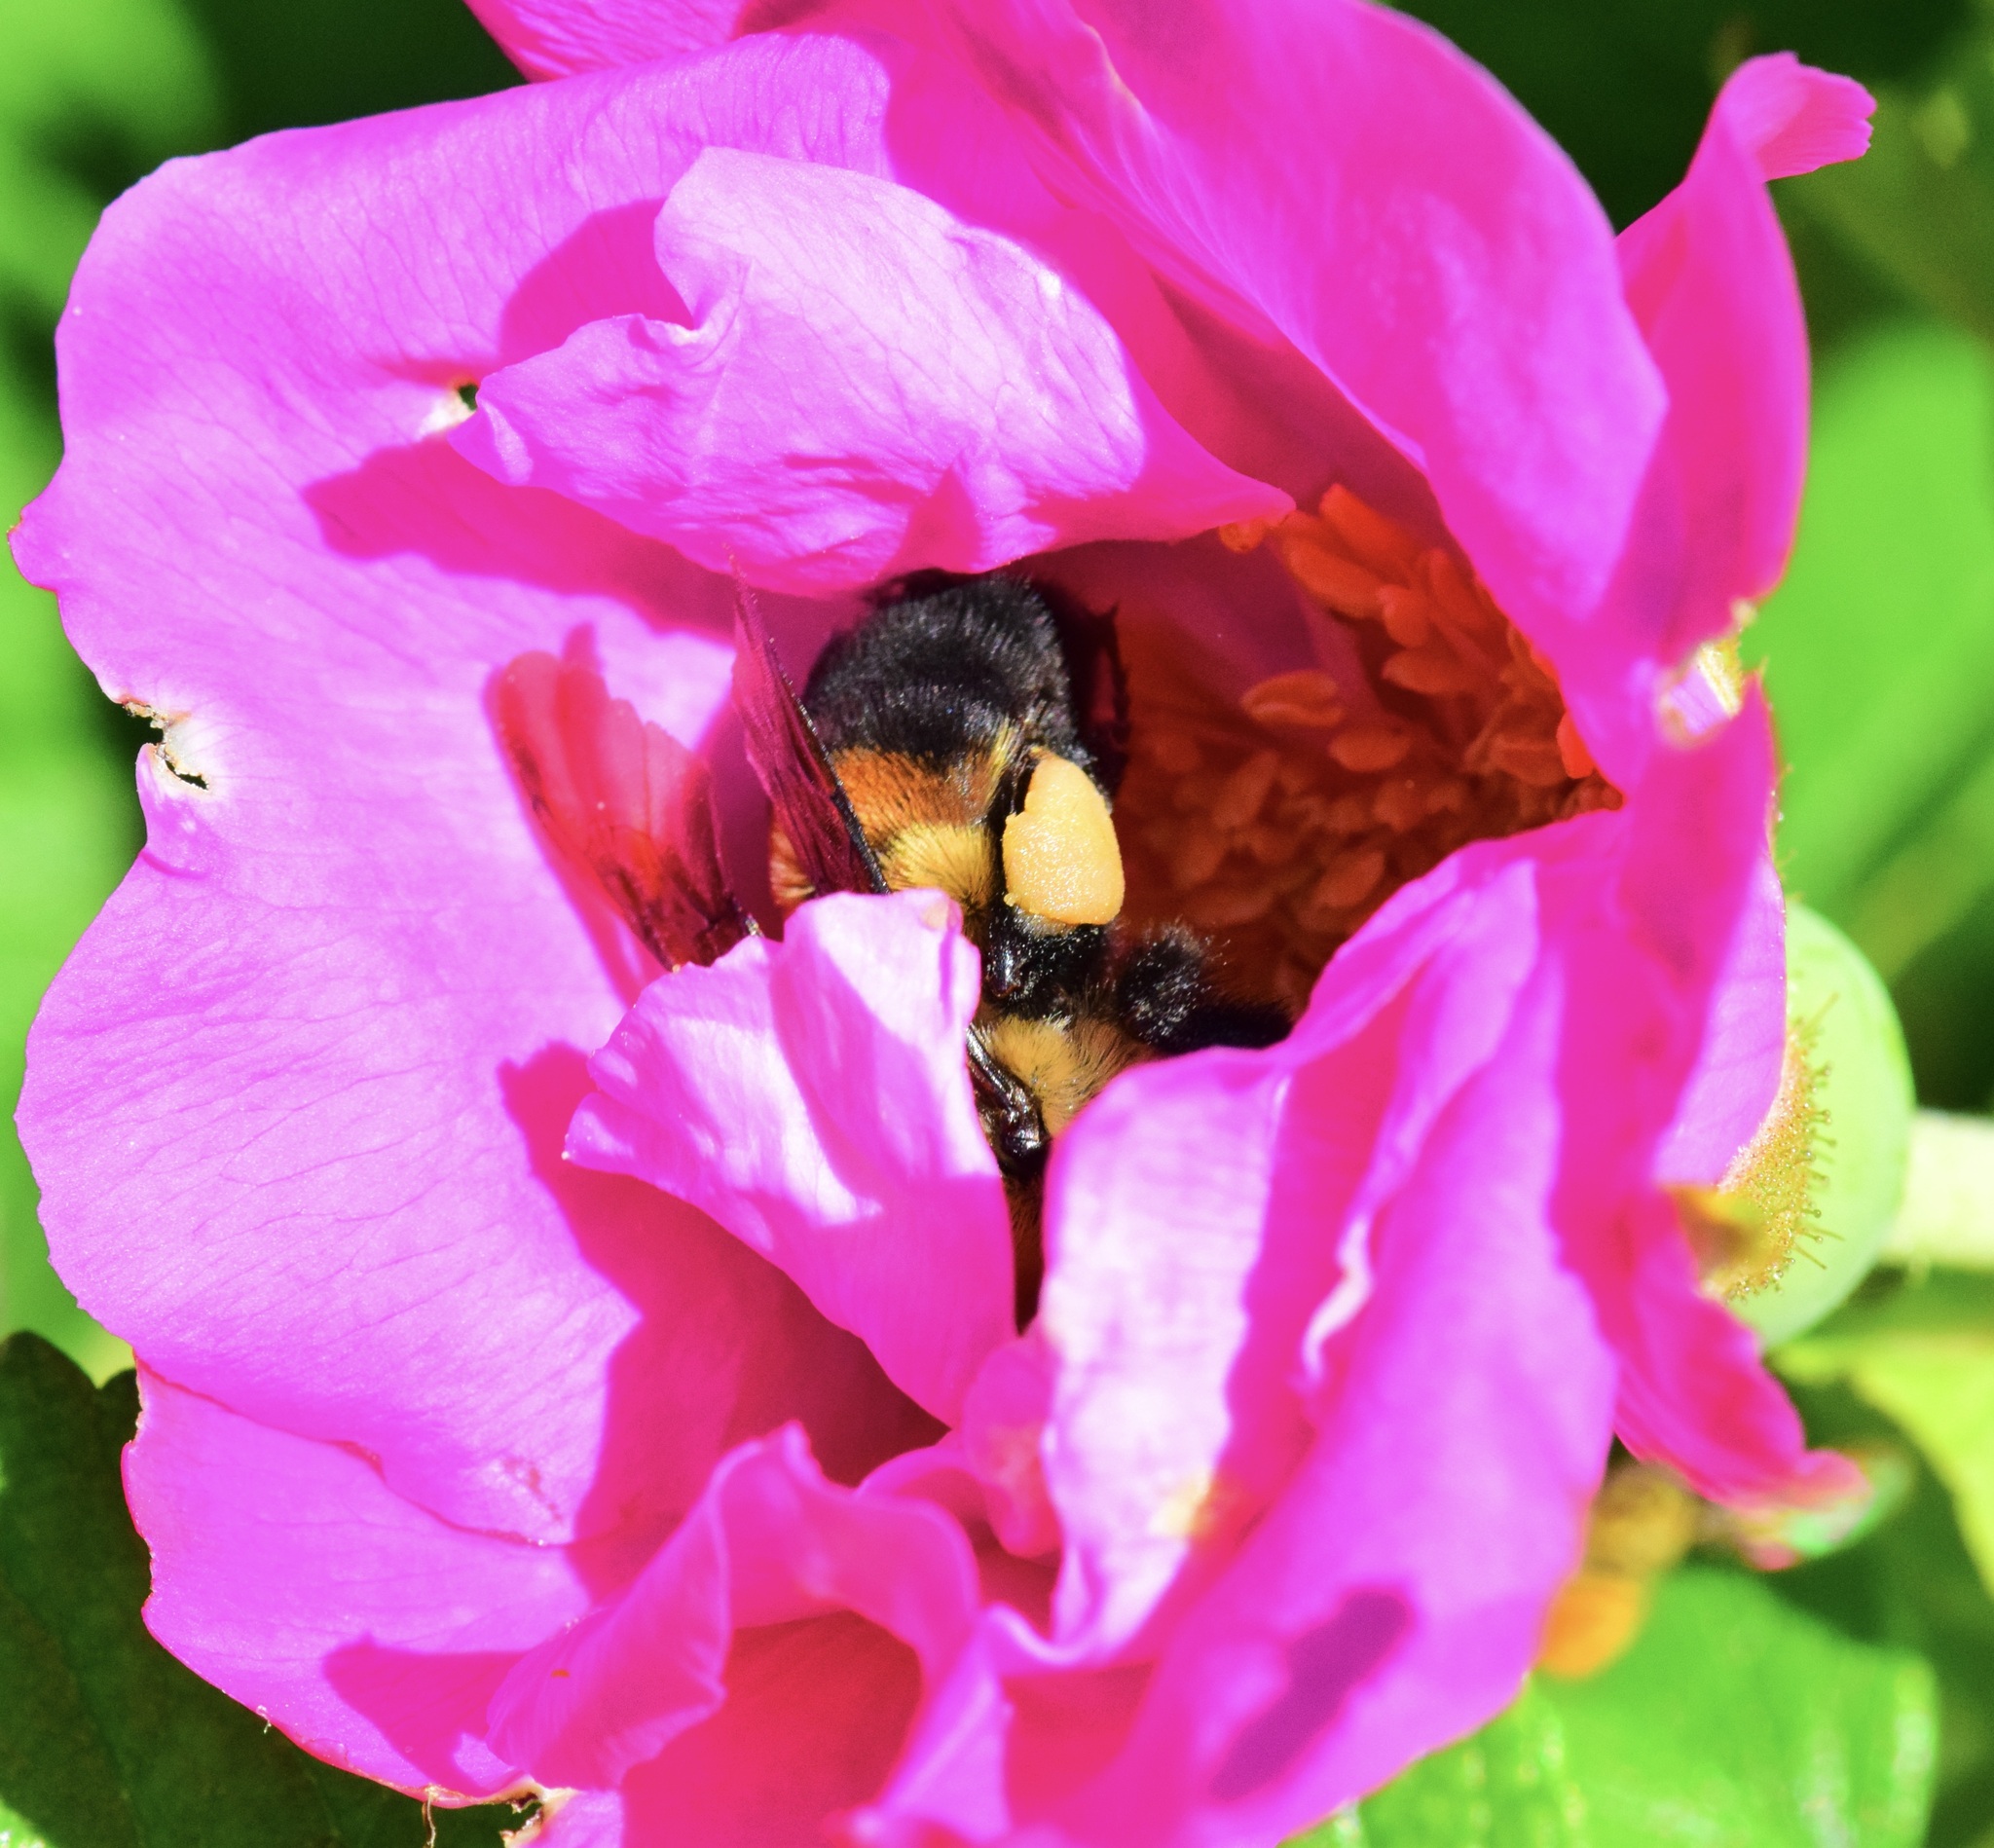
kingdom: Animalia
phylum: Arthropoda
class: Insecta
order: Hymenoptera
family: Apidae
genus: Bombus
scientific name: Bombus griseocollis
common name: Brown-belted bumble bee
